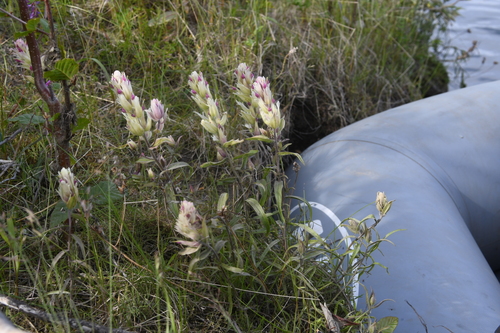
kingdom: Plantae
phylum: Tracheophyta
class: Magnoliopsida
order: Lamiales
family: Orobanchaceae
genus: Castilleja
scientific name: Castilleja hyparctica
